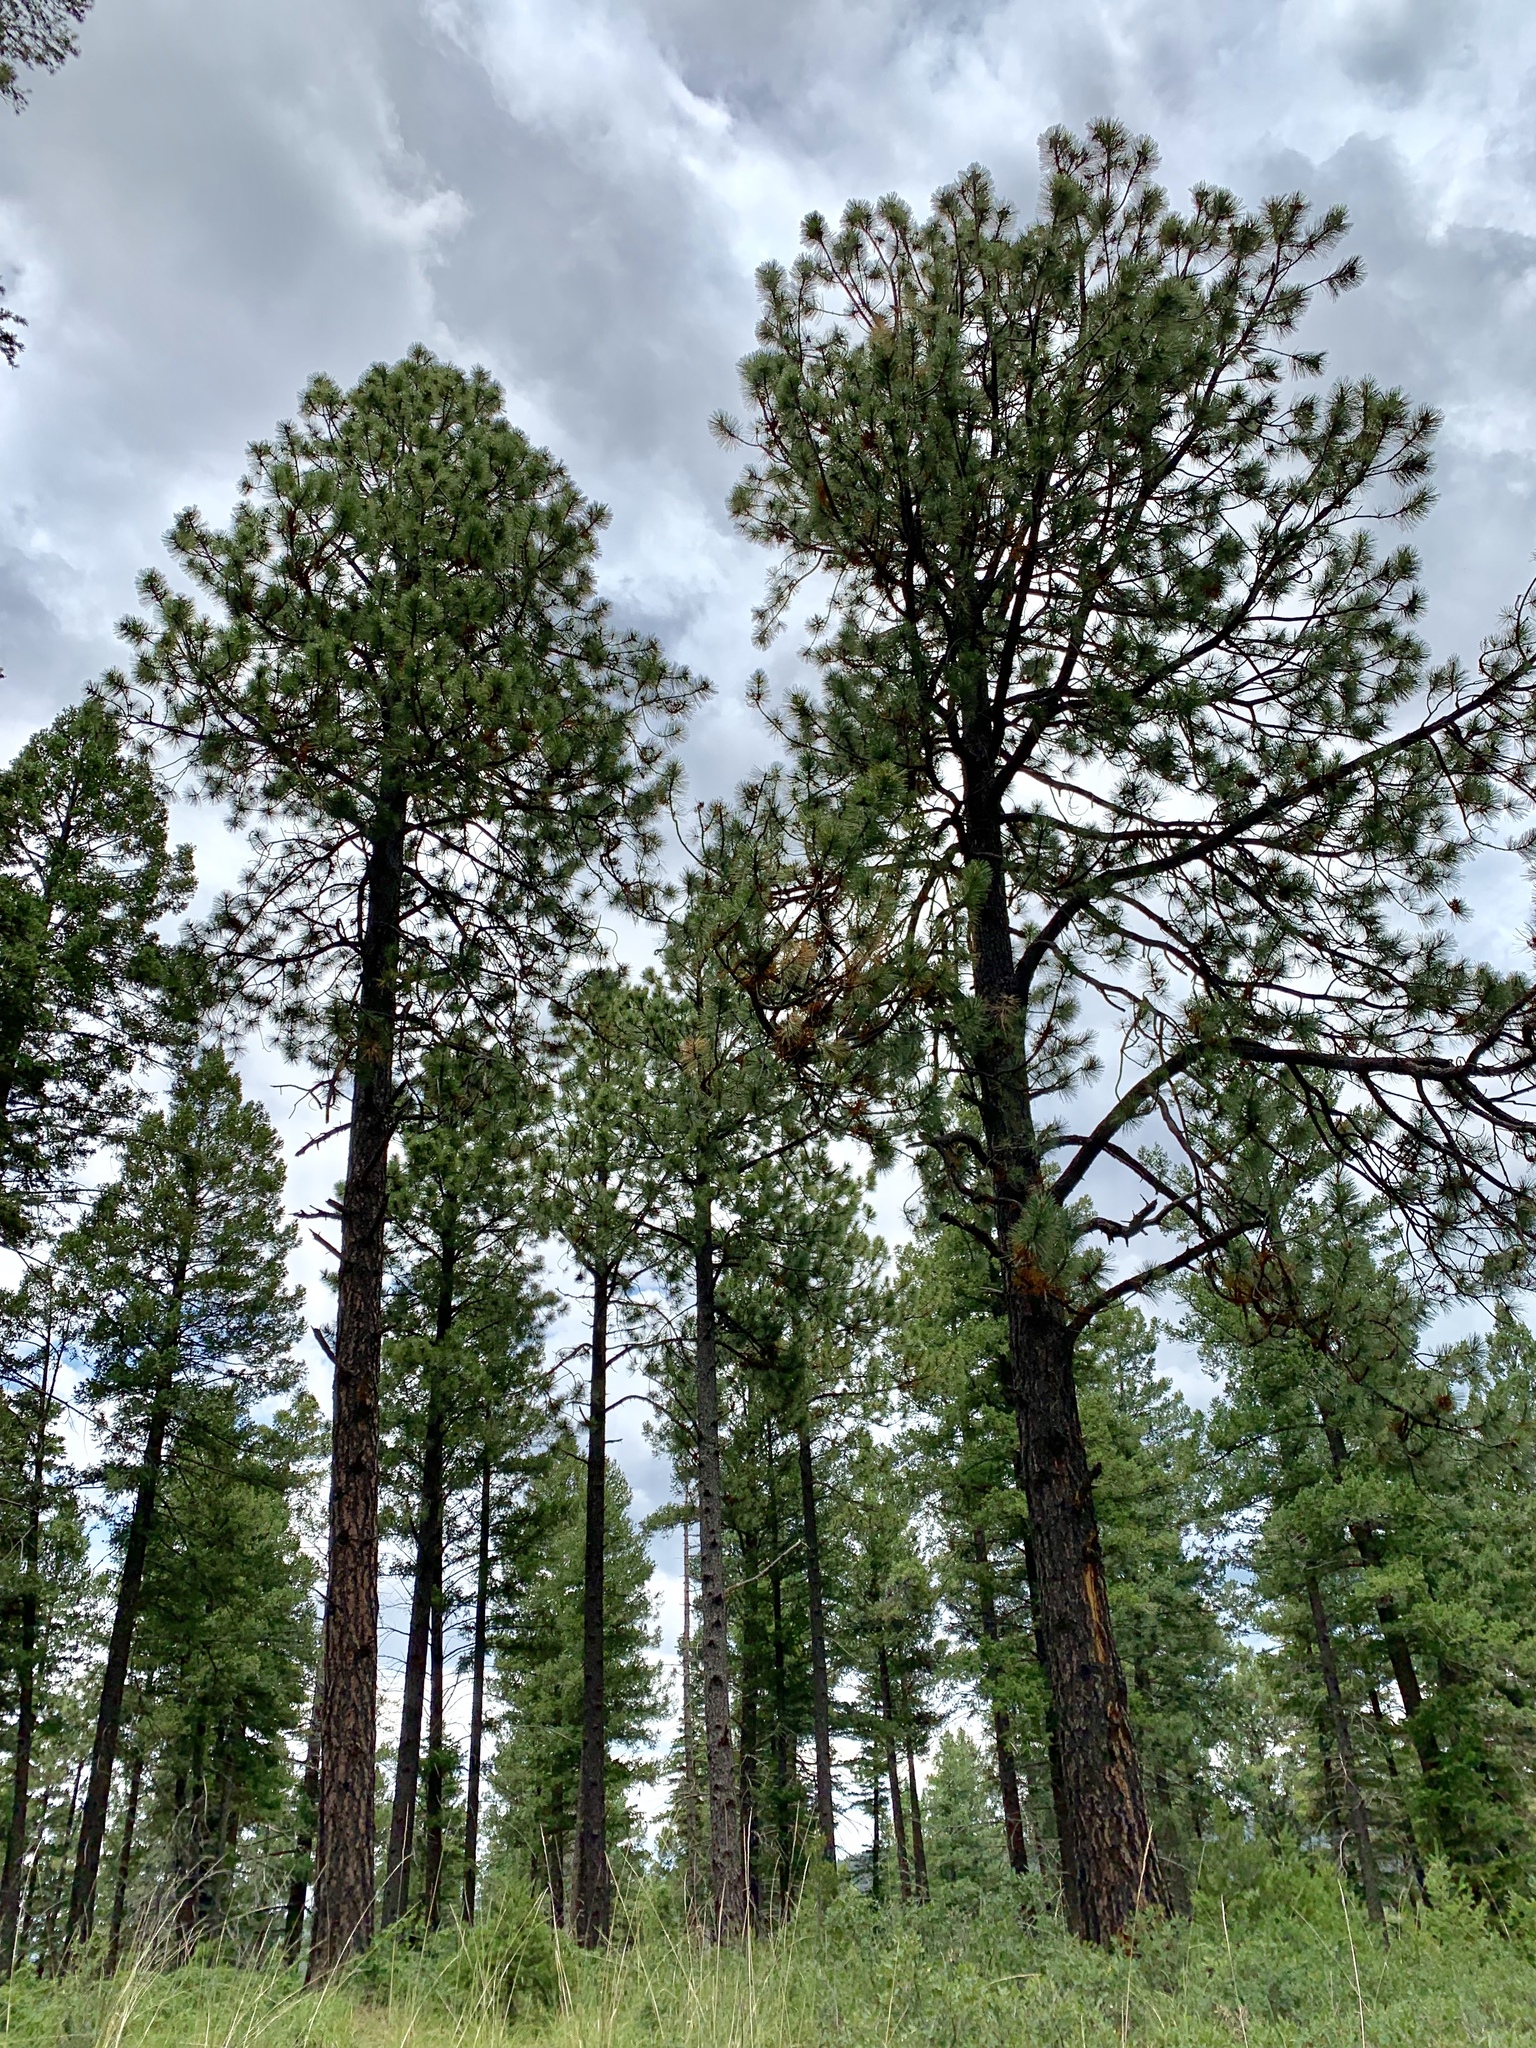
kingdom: Plantae
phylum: Tracheophyta
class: Pinopsida
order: Pinales
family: Pinaceae
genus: Pinus
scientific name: Pinus ponderosa
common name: Western yellow-pine
